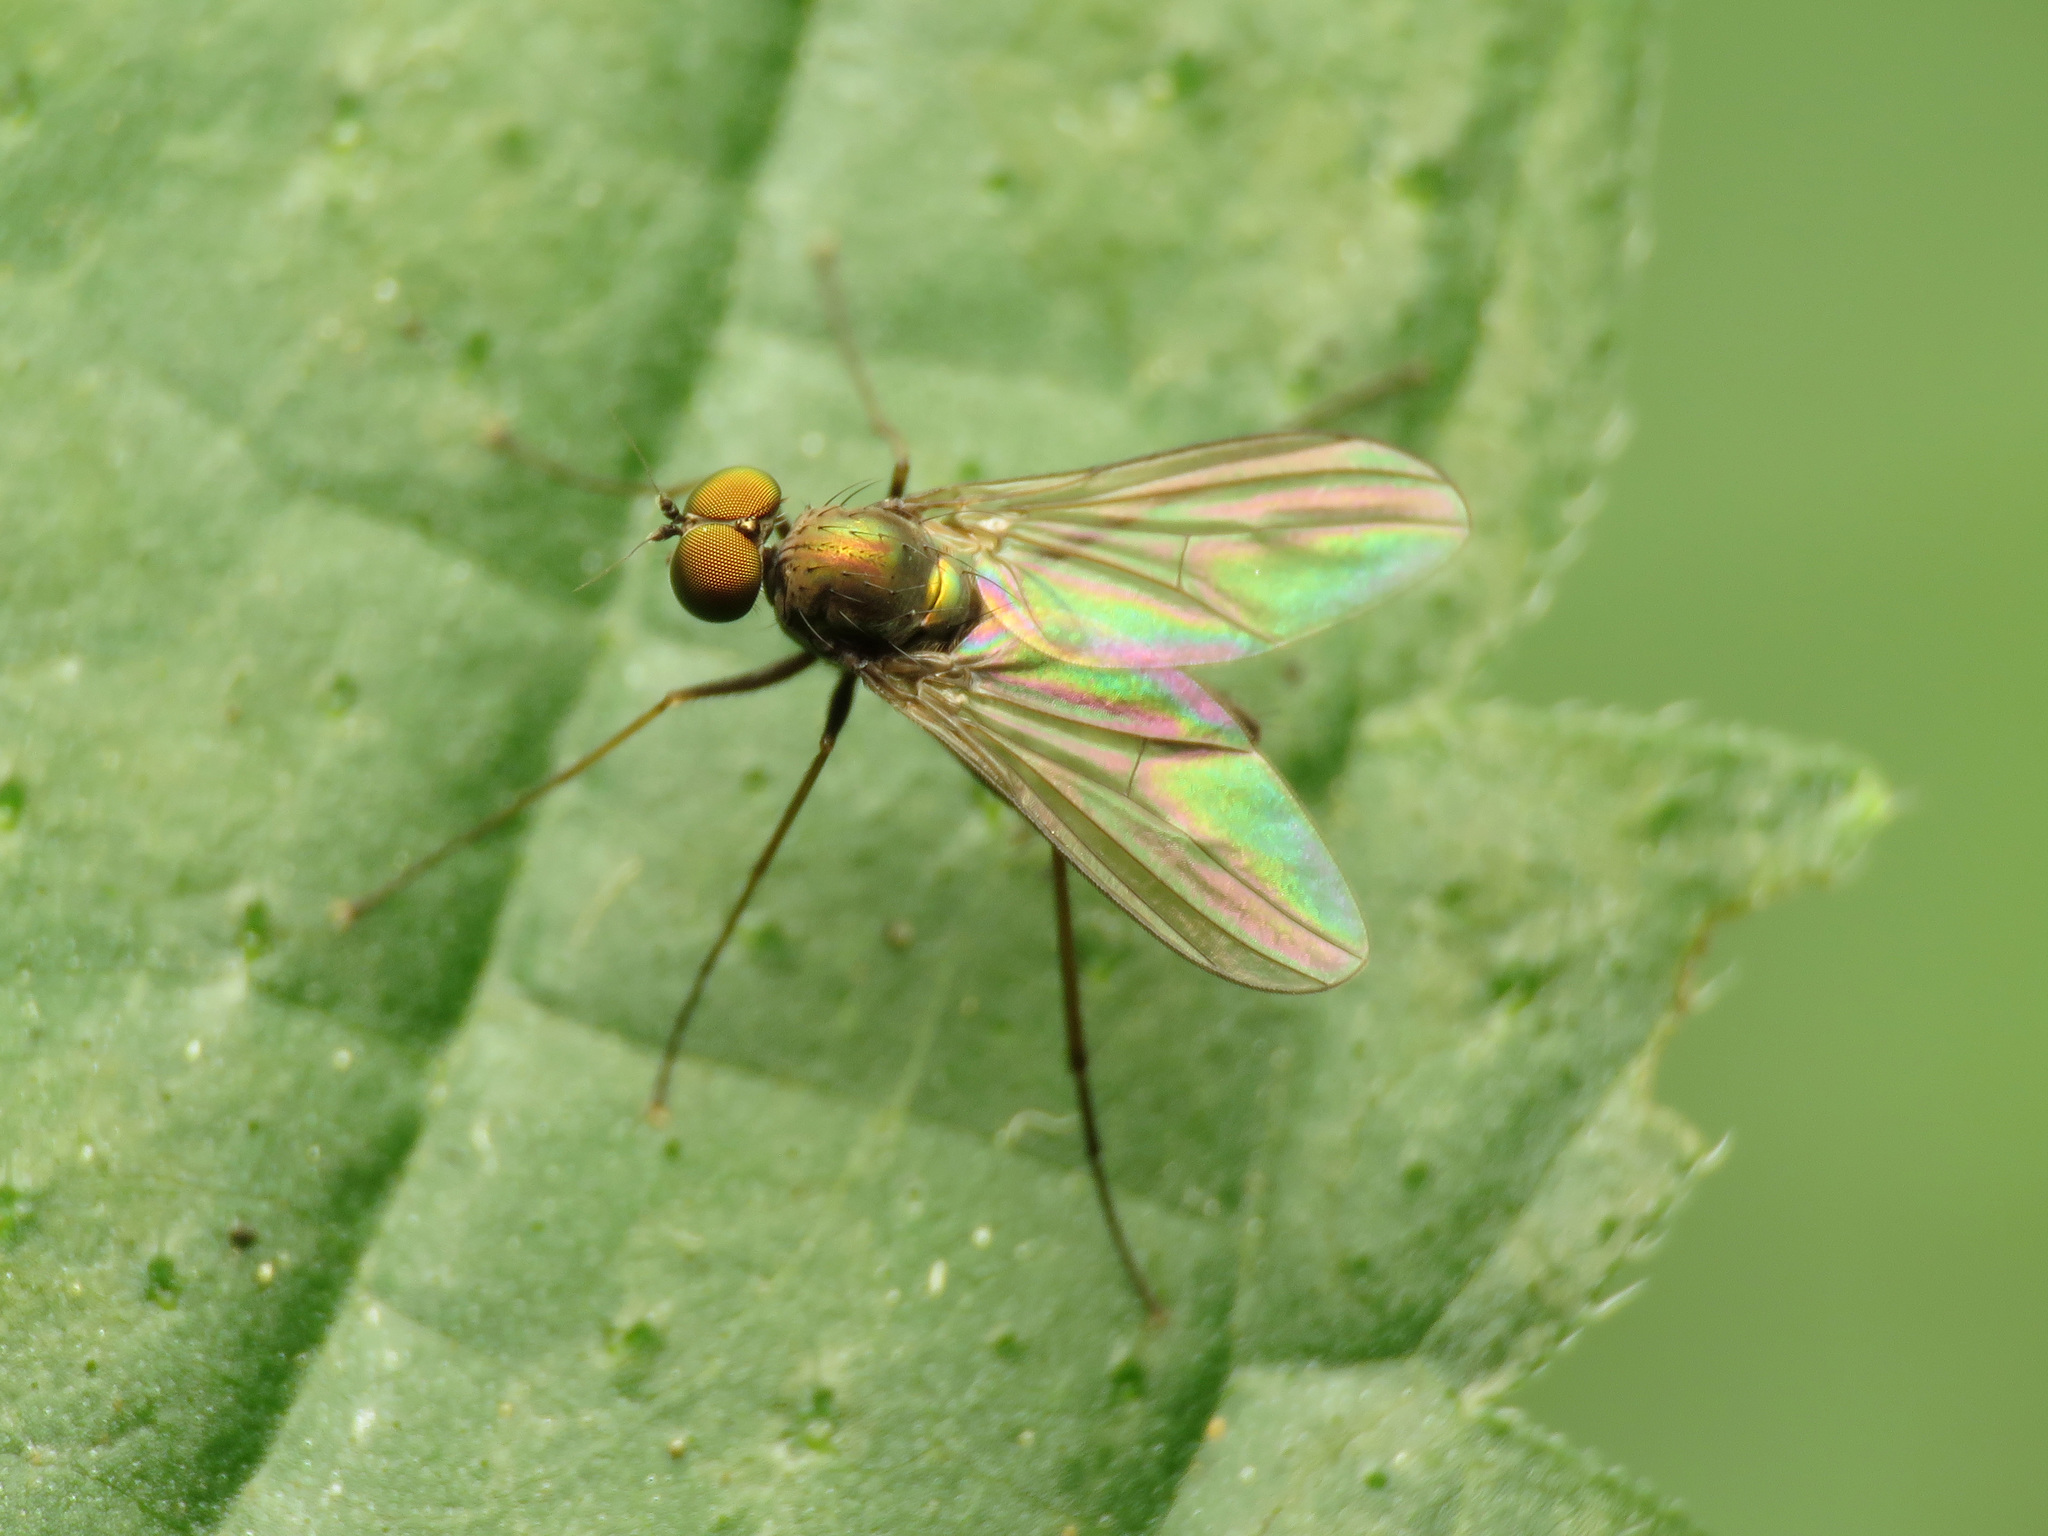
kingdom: Animalia
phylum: Arthropoda
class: Insecta
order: Diptera
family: Dolichopodidae
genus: Chrysotus
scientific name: Chrysotus spectabilis
